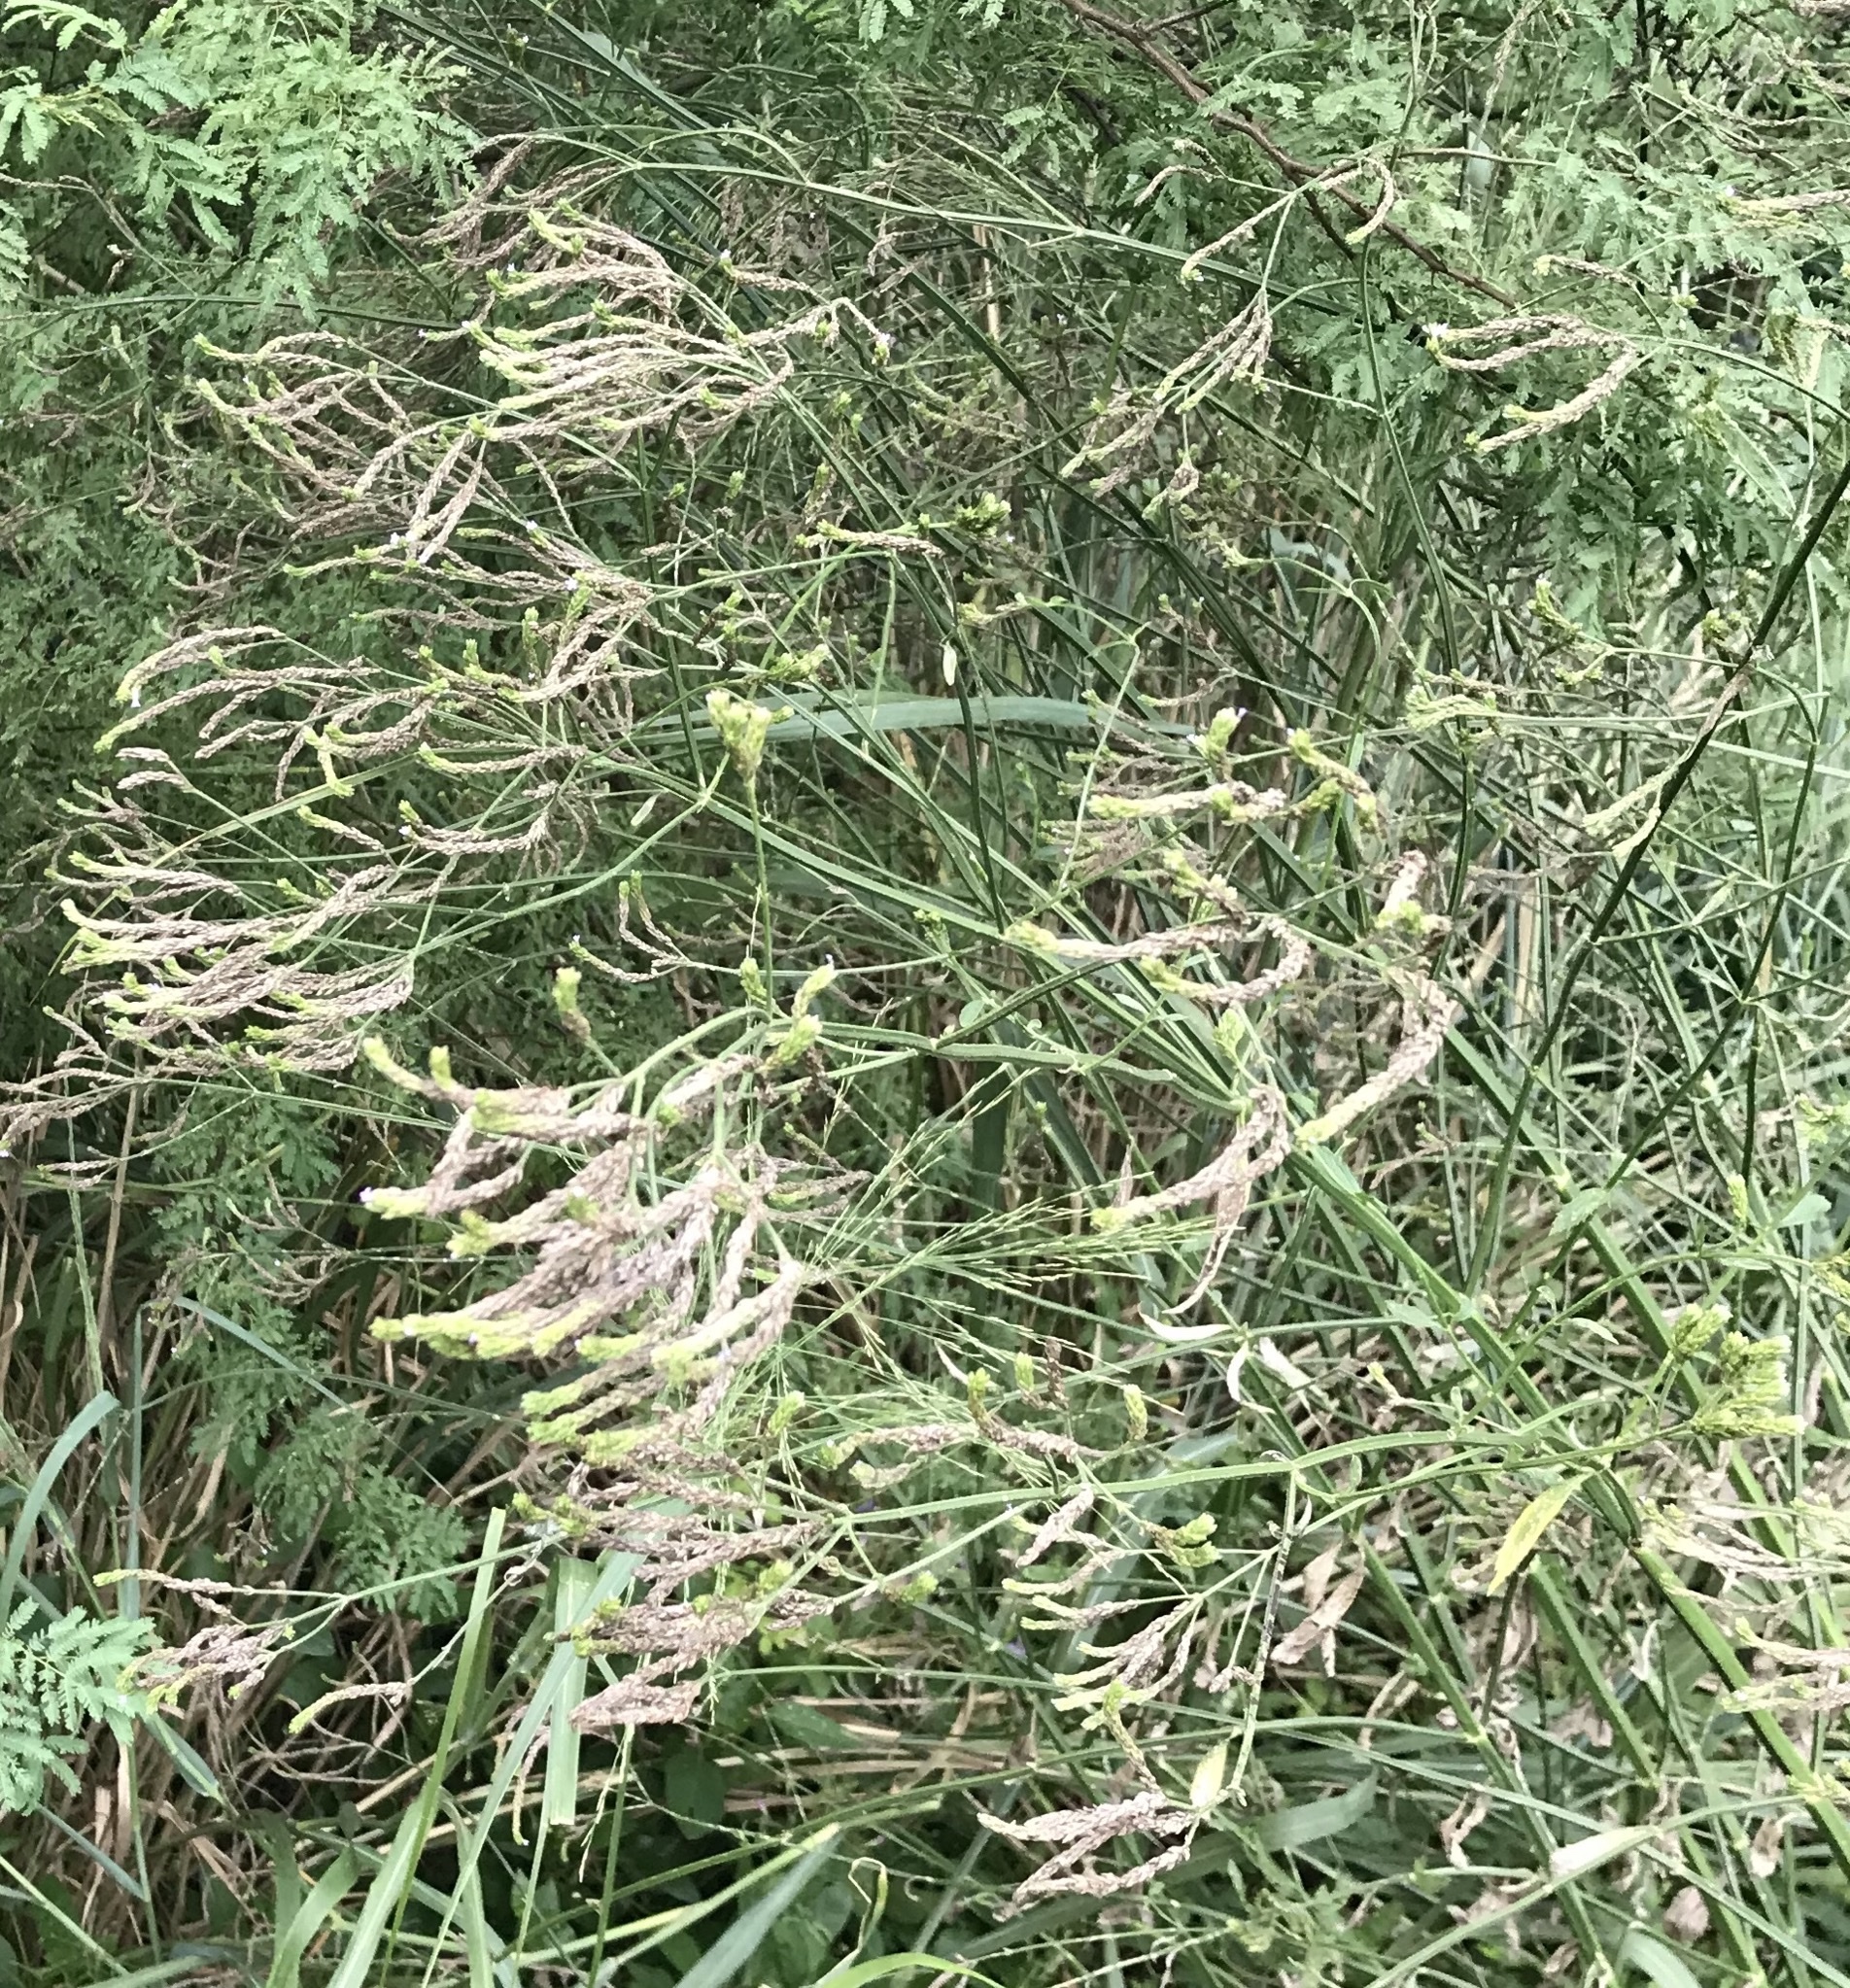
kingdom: Plantae
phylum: Tracheophyta
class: Magnoliopsida
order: Lamiales
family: Verbenaceae
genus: Verbena
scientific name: Verbena brasiliensis
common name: Brazilian vervain
